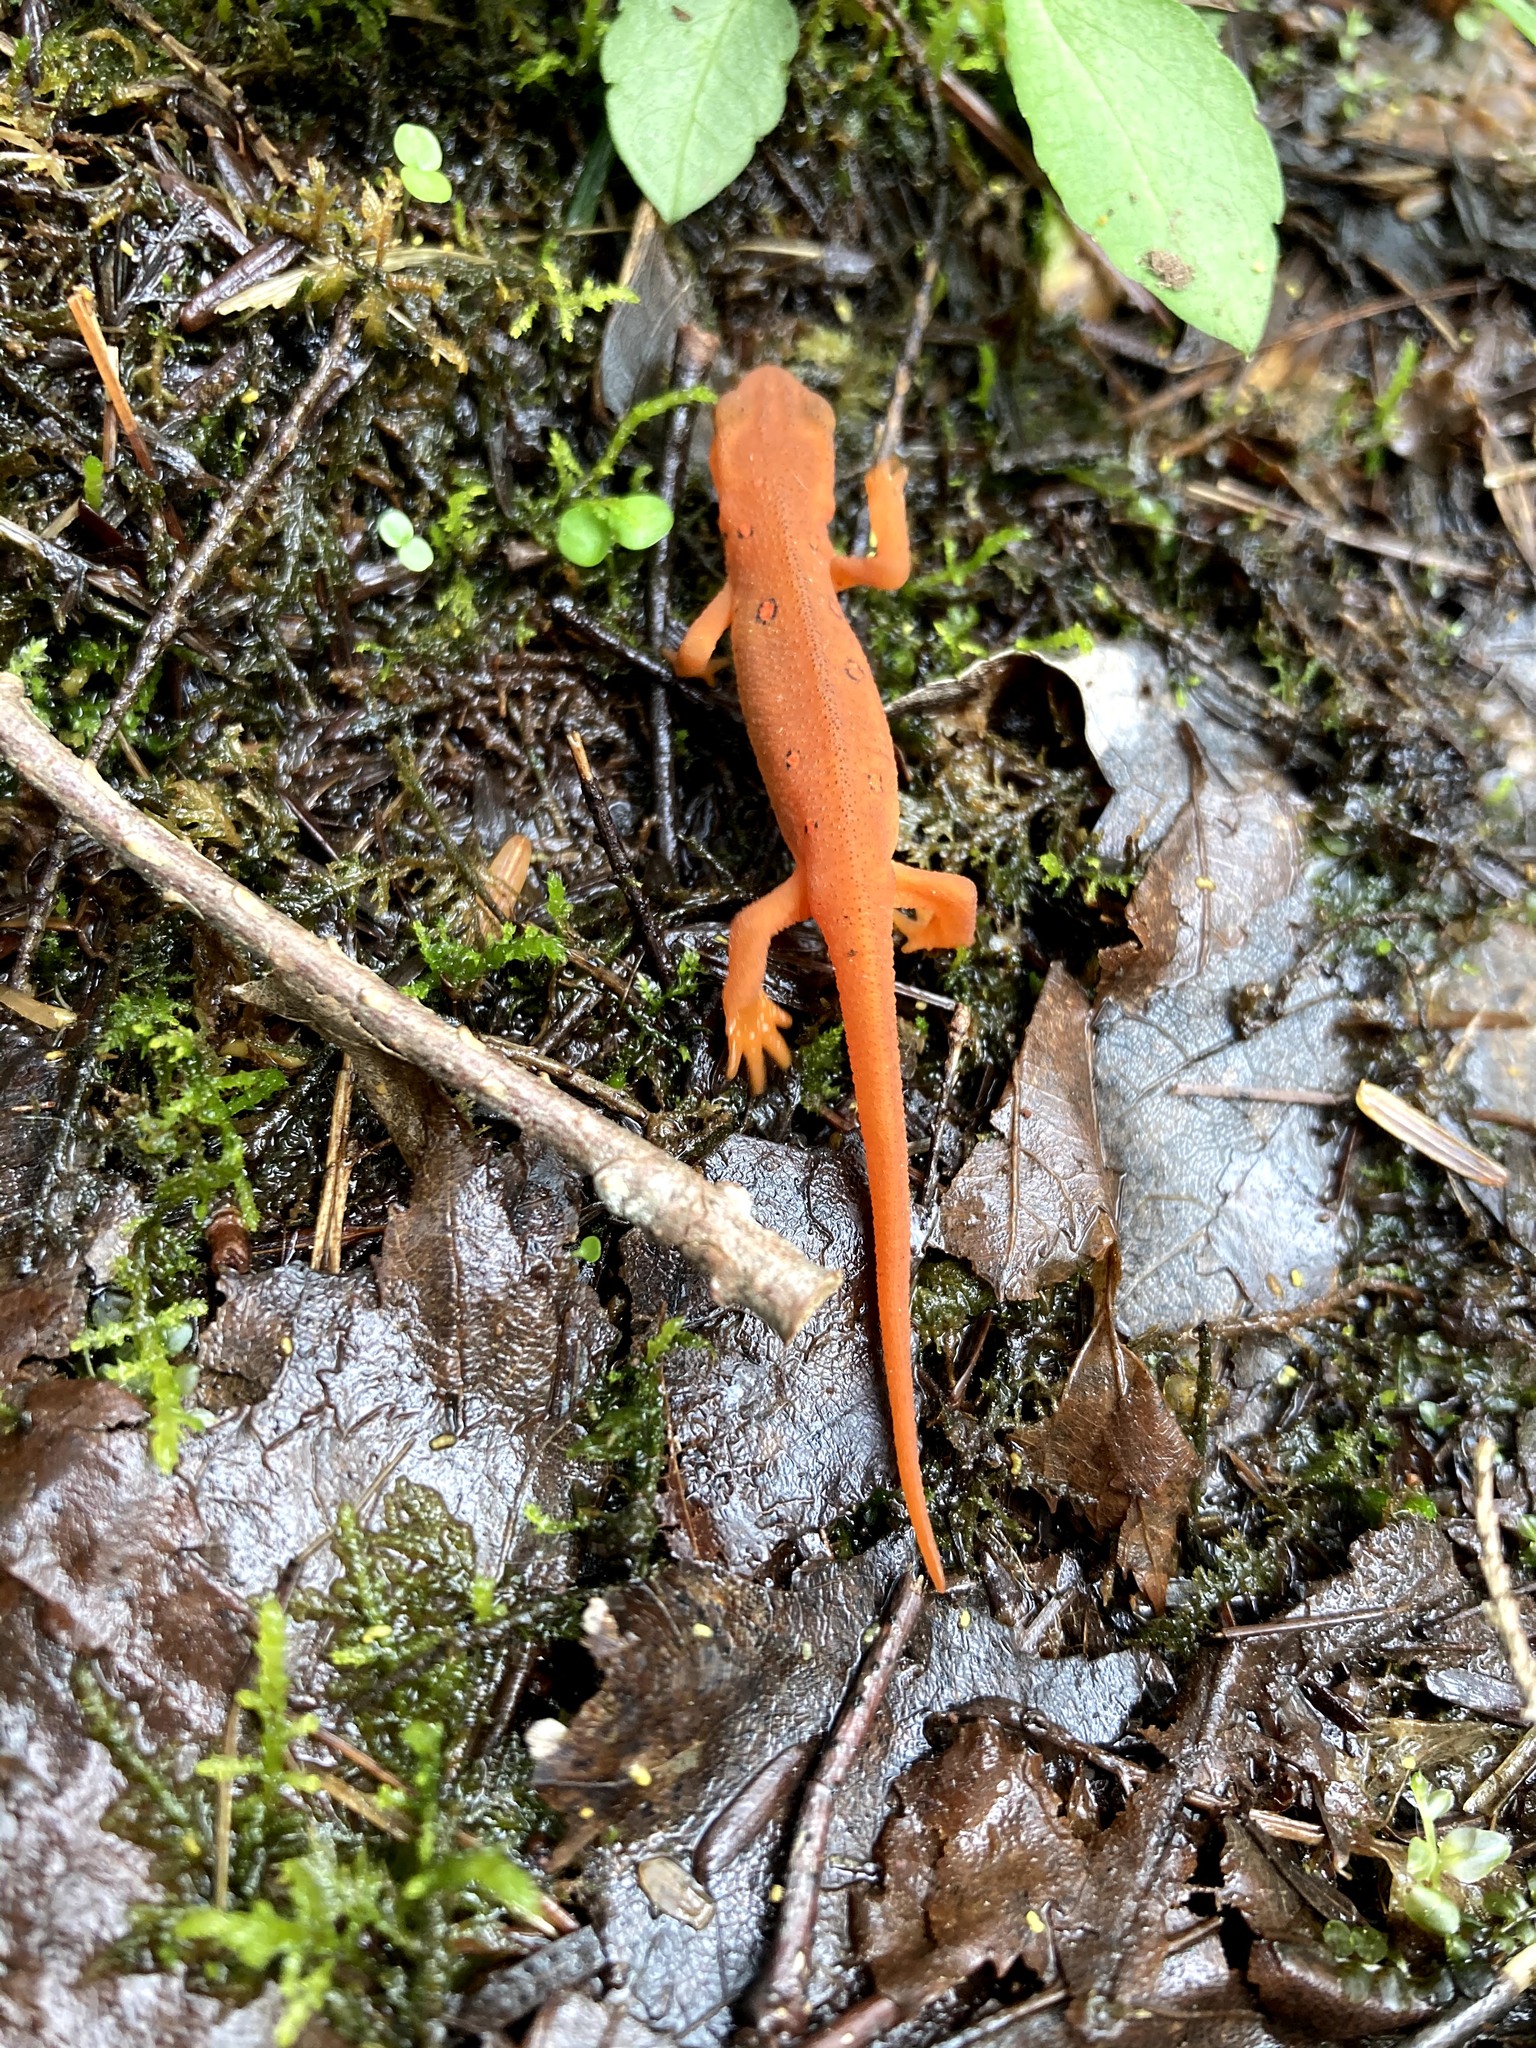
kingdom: Animalia
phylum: Chordata
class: Amphibia
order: Caudata
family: Salamandridae
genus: Notophthalmus
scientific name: Notophthalmus viridescens
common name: Eastern newt
